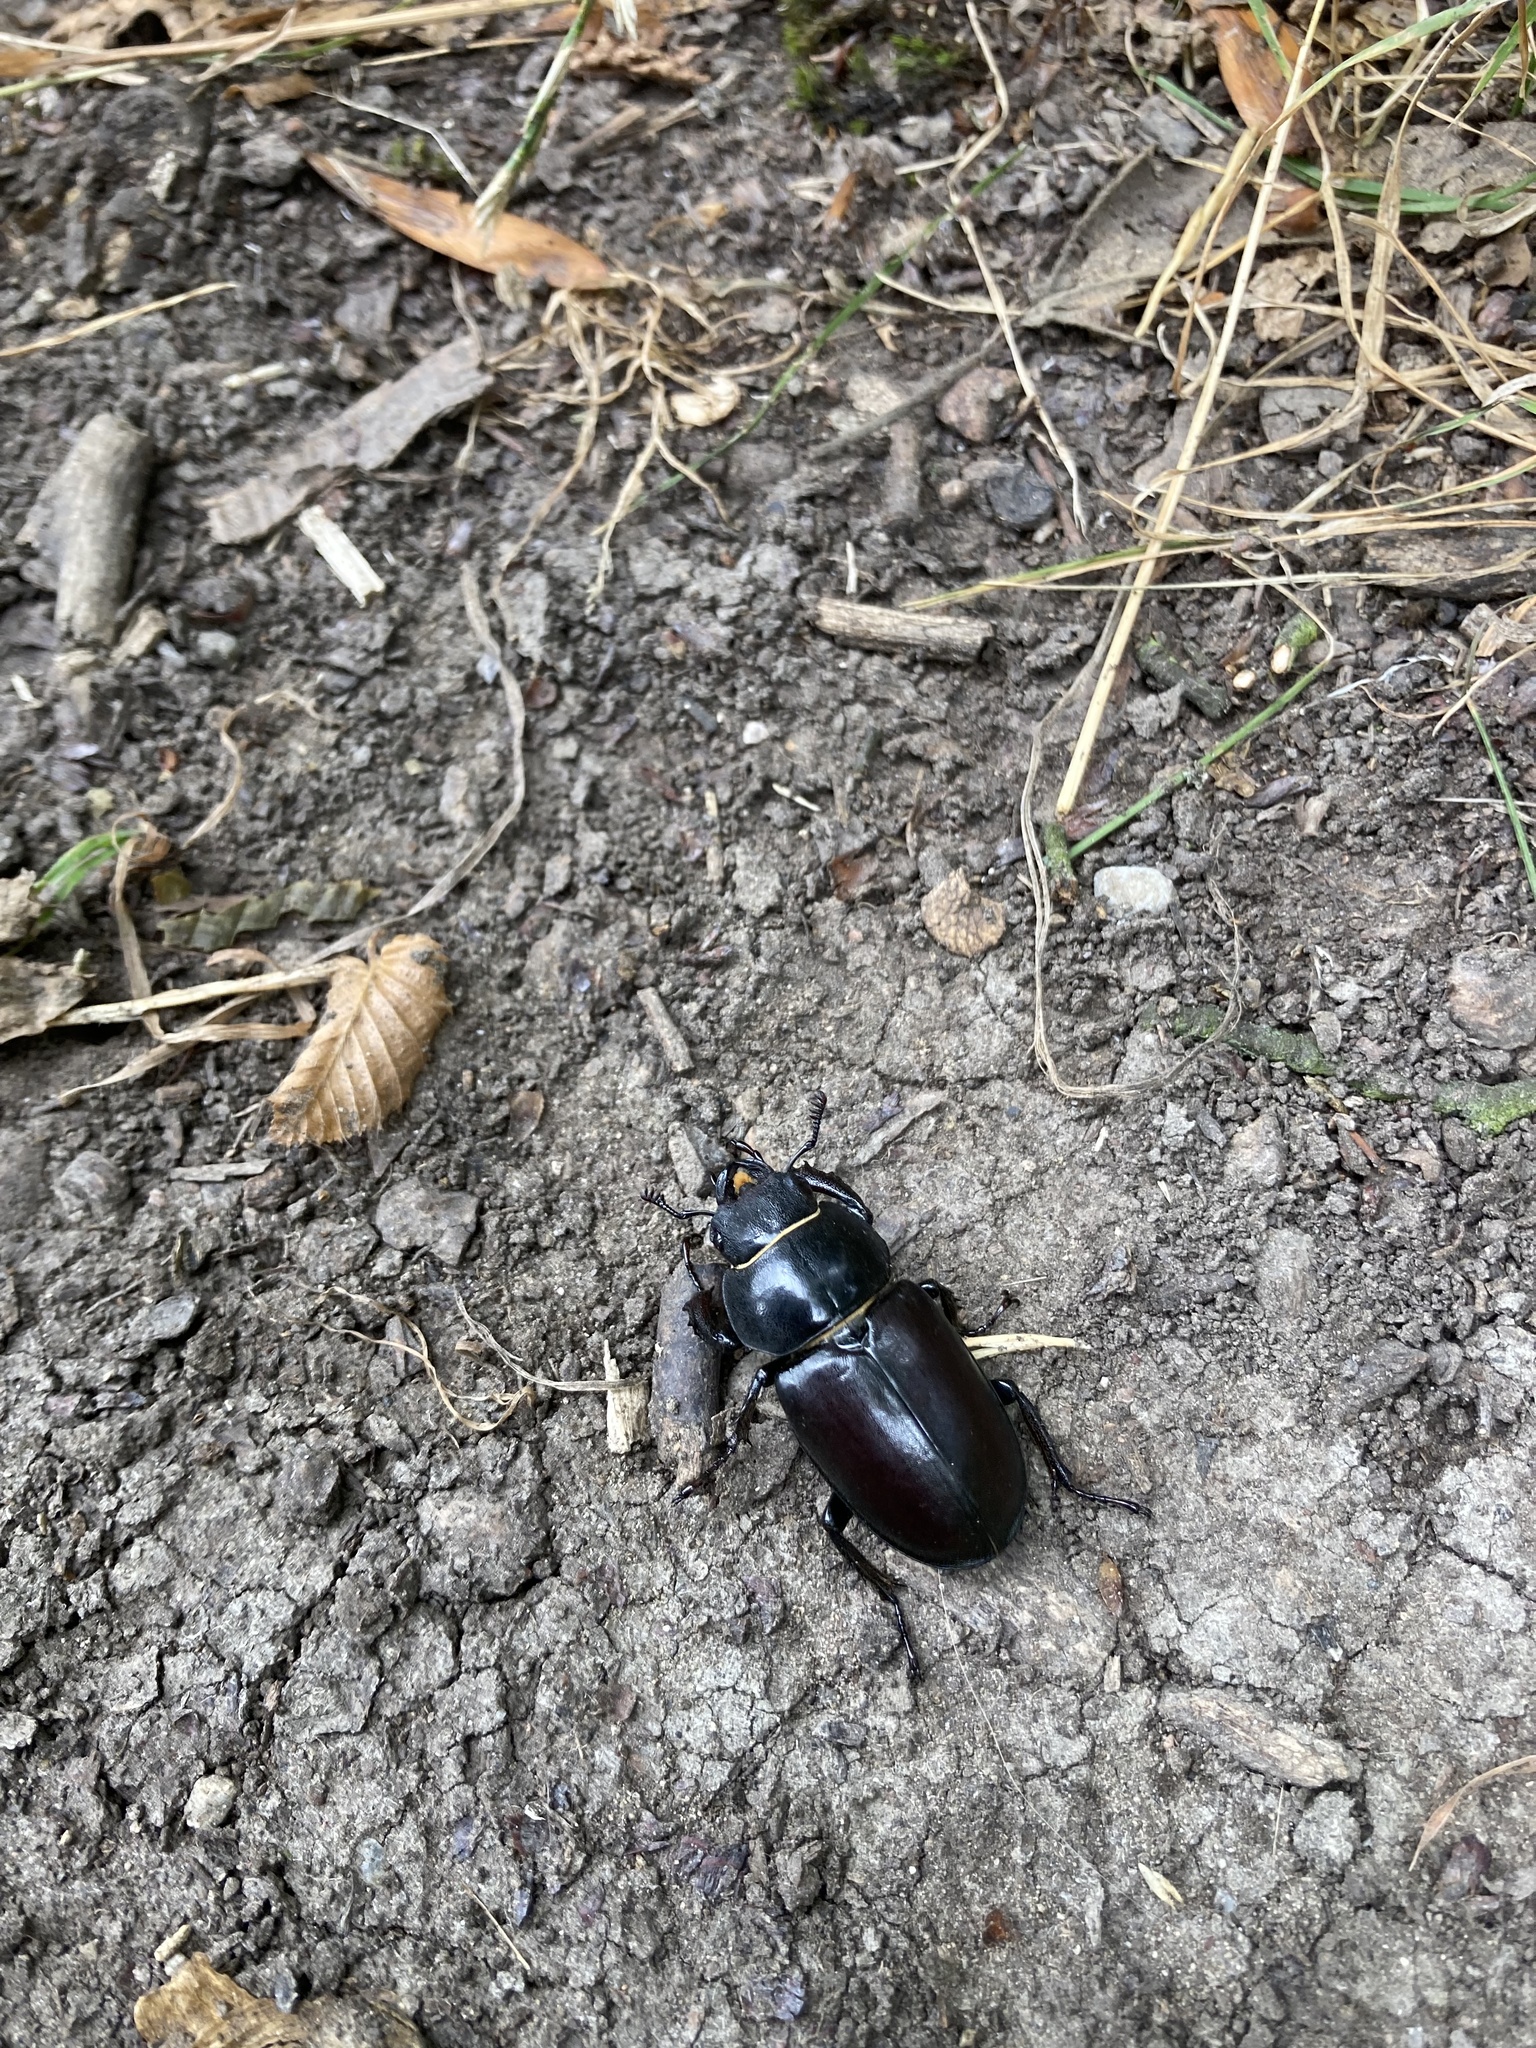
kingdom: Animalia
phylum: Arthropoda
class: Insecta
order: Coleoptera
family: Lucanidae
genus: Lucanus
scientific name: Lucanus cervus
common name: Stag beetle
